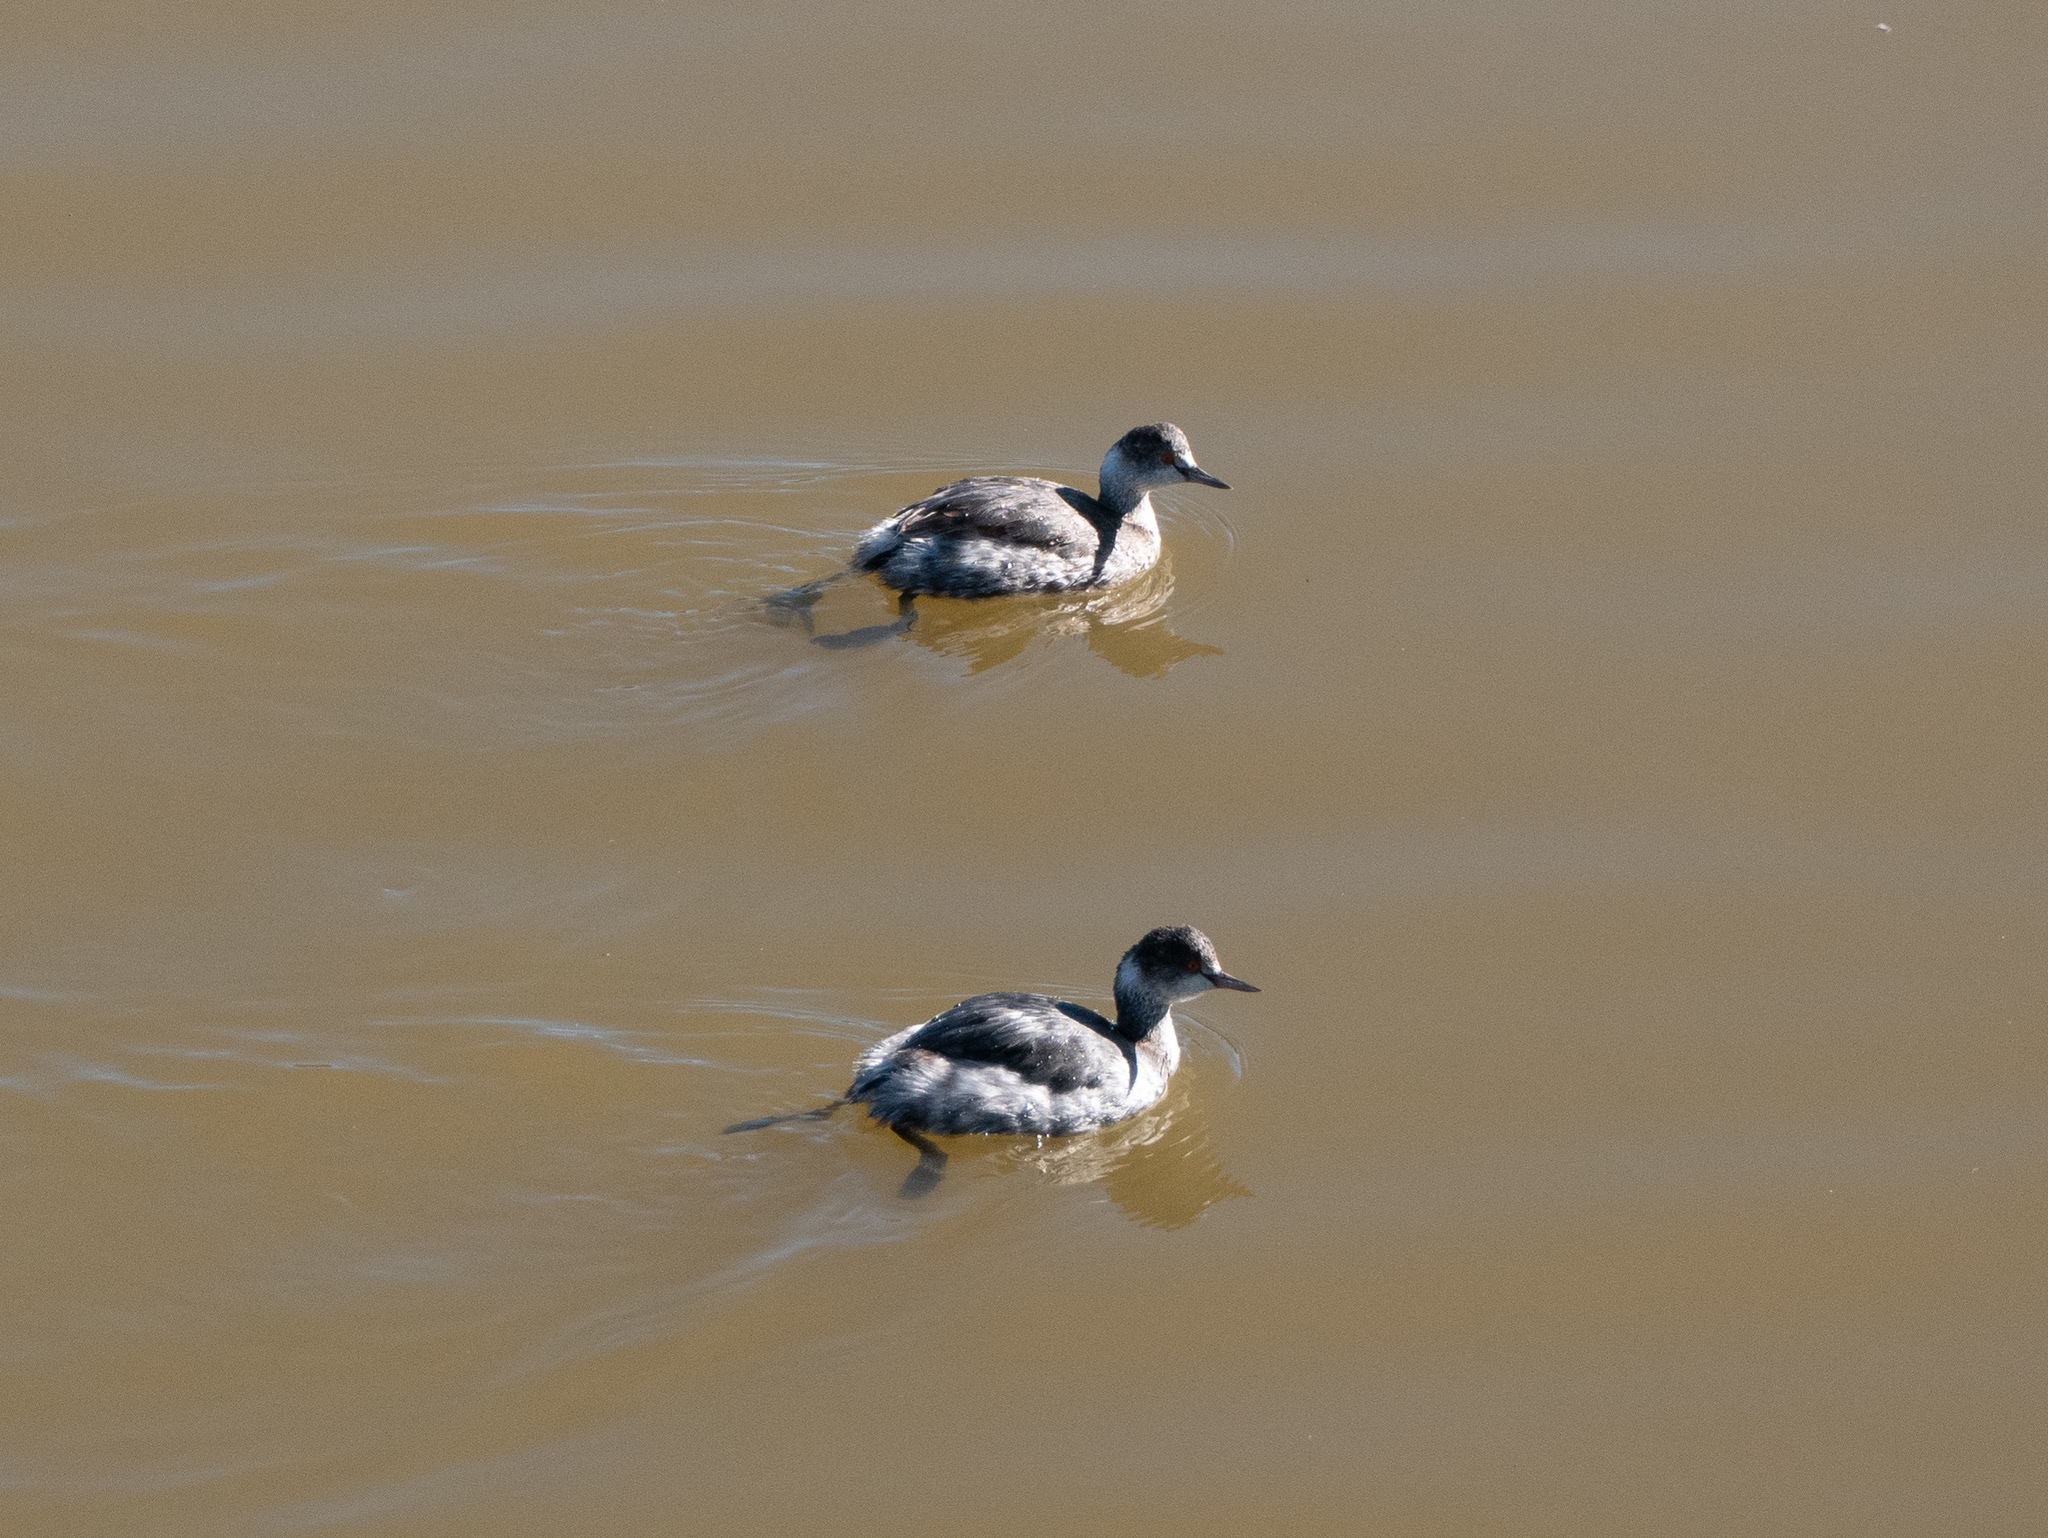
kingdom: Animalia
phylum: Chordata
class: Aves
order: Podicipediformes
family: Podicipedidae
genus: Podiceps
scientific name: Podiceps nigricollis
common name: Black-necked grebe
